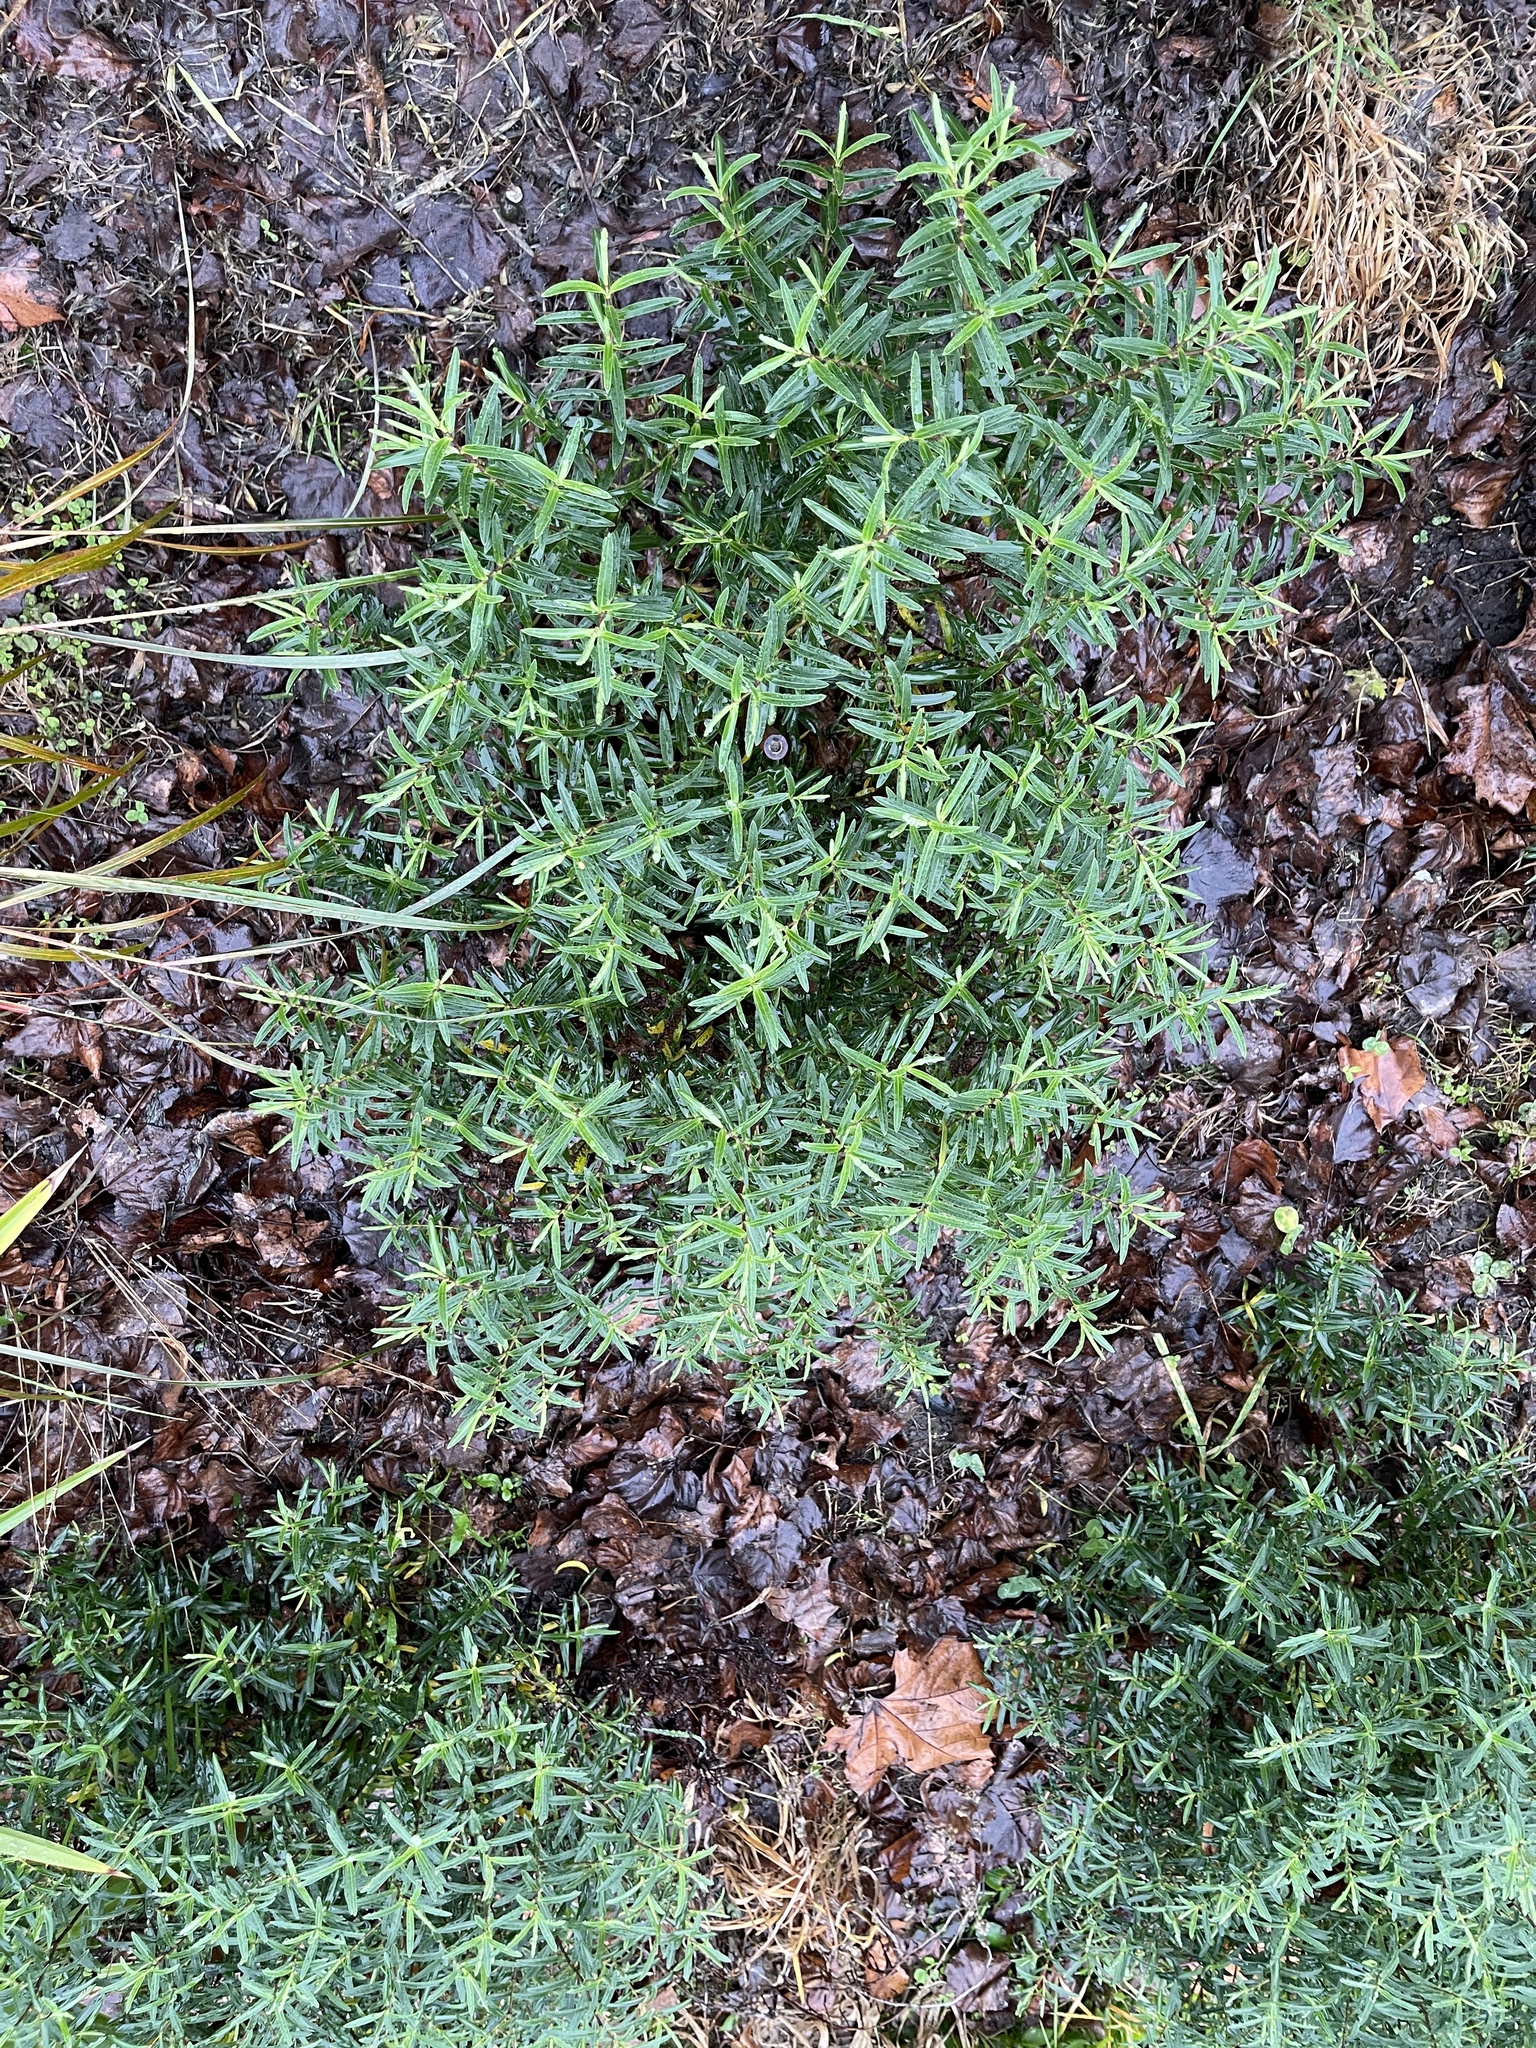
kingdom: Plantae
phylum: Tracheophyta
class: Magnoliopsida
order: Lamiales
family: Plantaginaceae
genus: Veronica
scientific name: Veronica strictissima
